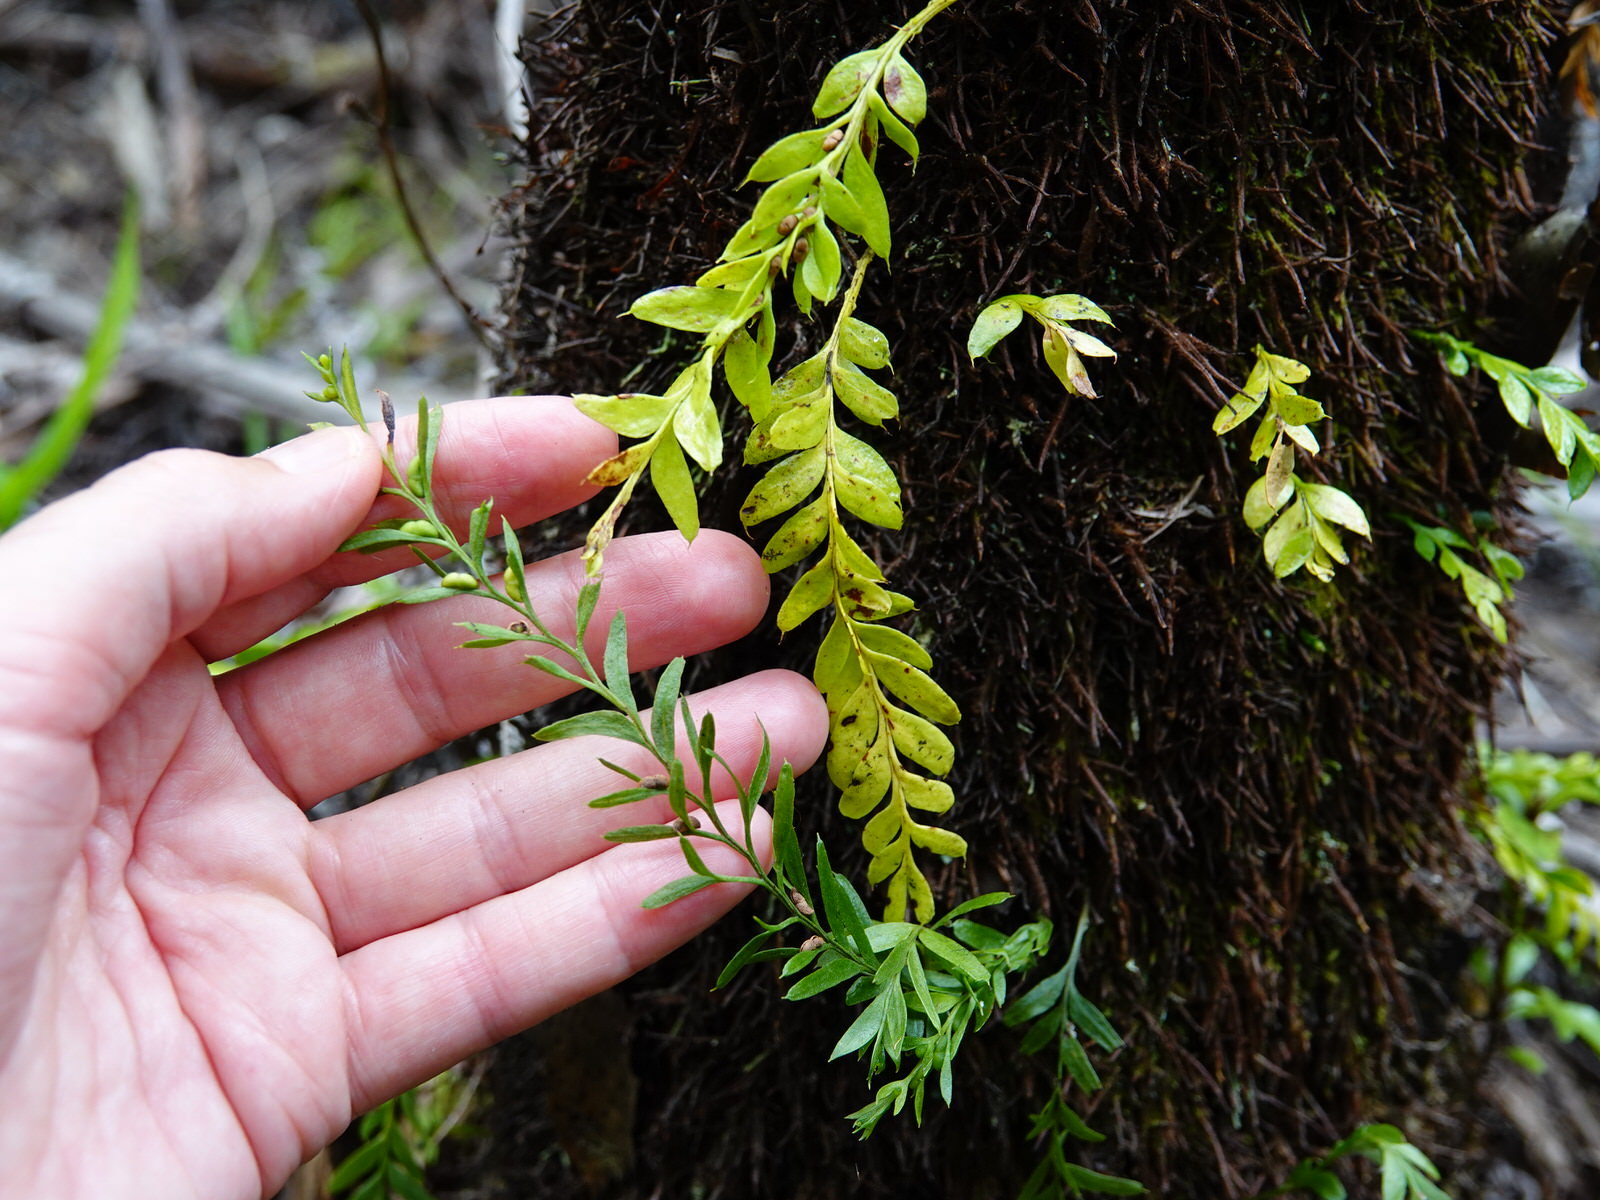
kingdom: Plantae
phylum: Tracheophyta
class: Polypodiopsida
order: Psilotales
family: Psilotaceae
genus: Tmesipteris
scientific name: Tmesipteris lanceolata
